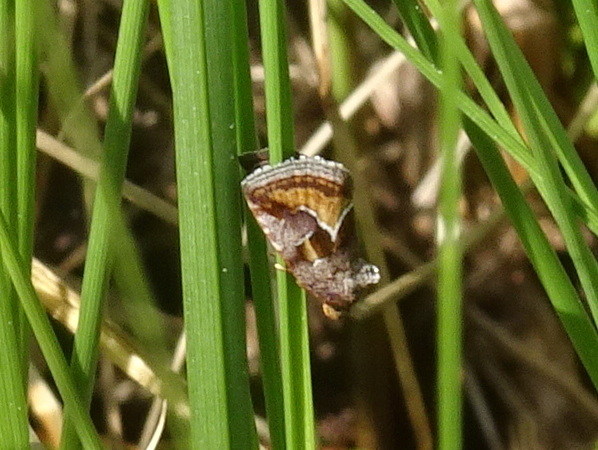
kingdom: Animalia
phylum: Arthropoda
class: Insecta
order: Lepidoptera
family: Noctuidae
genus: Deltote
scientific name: Deltote bellicula
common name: Bog glyph
